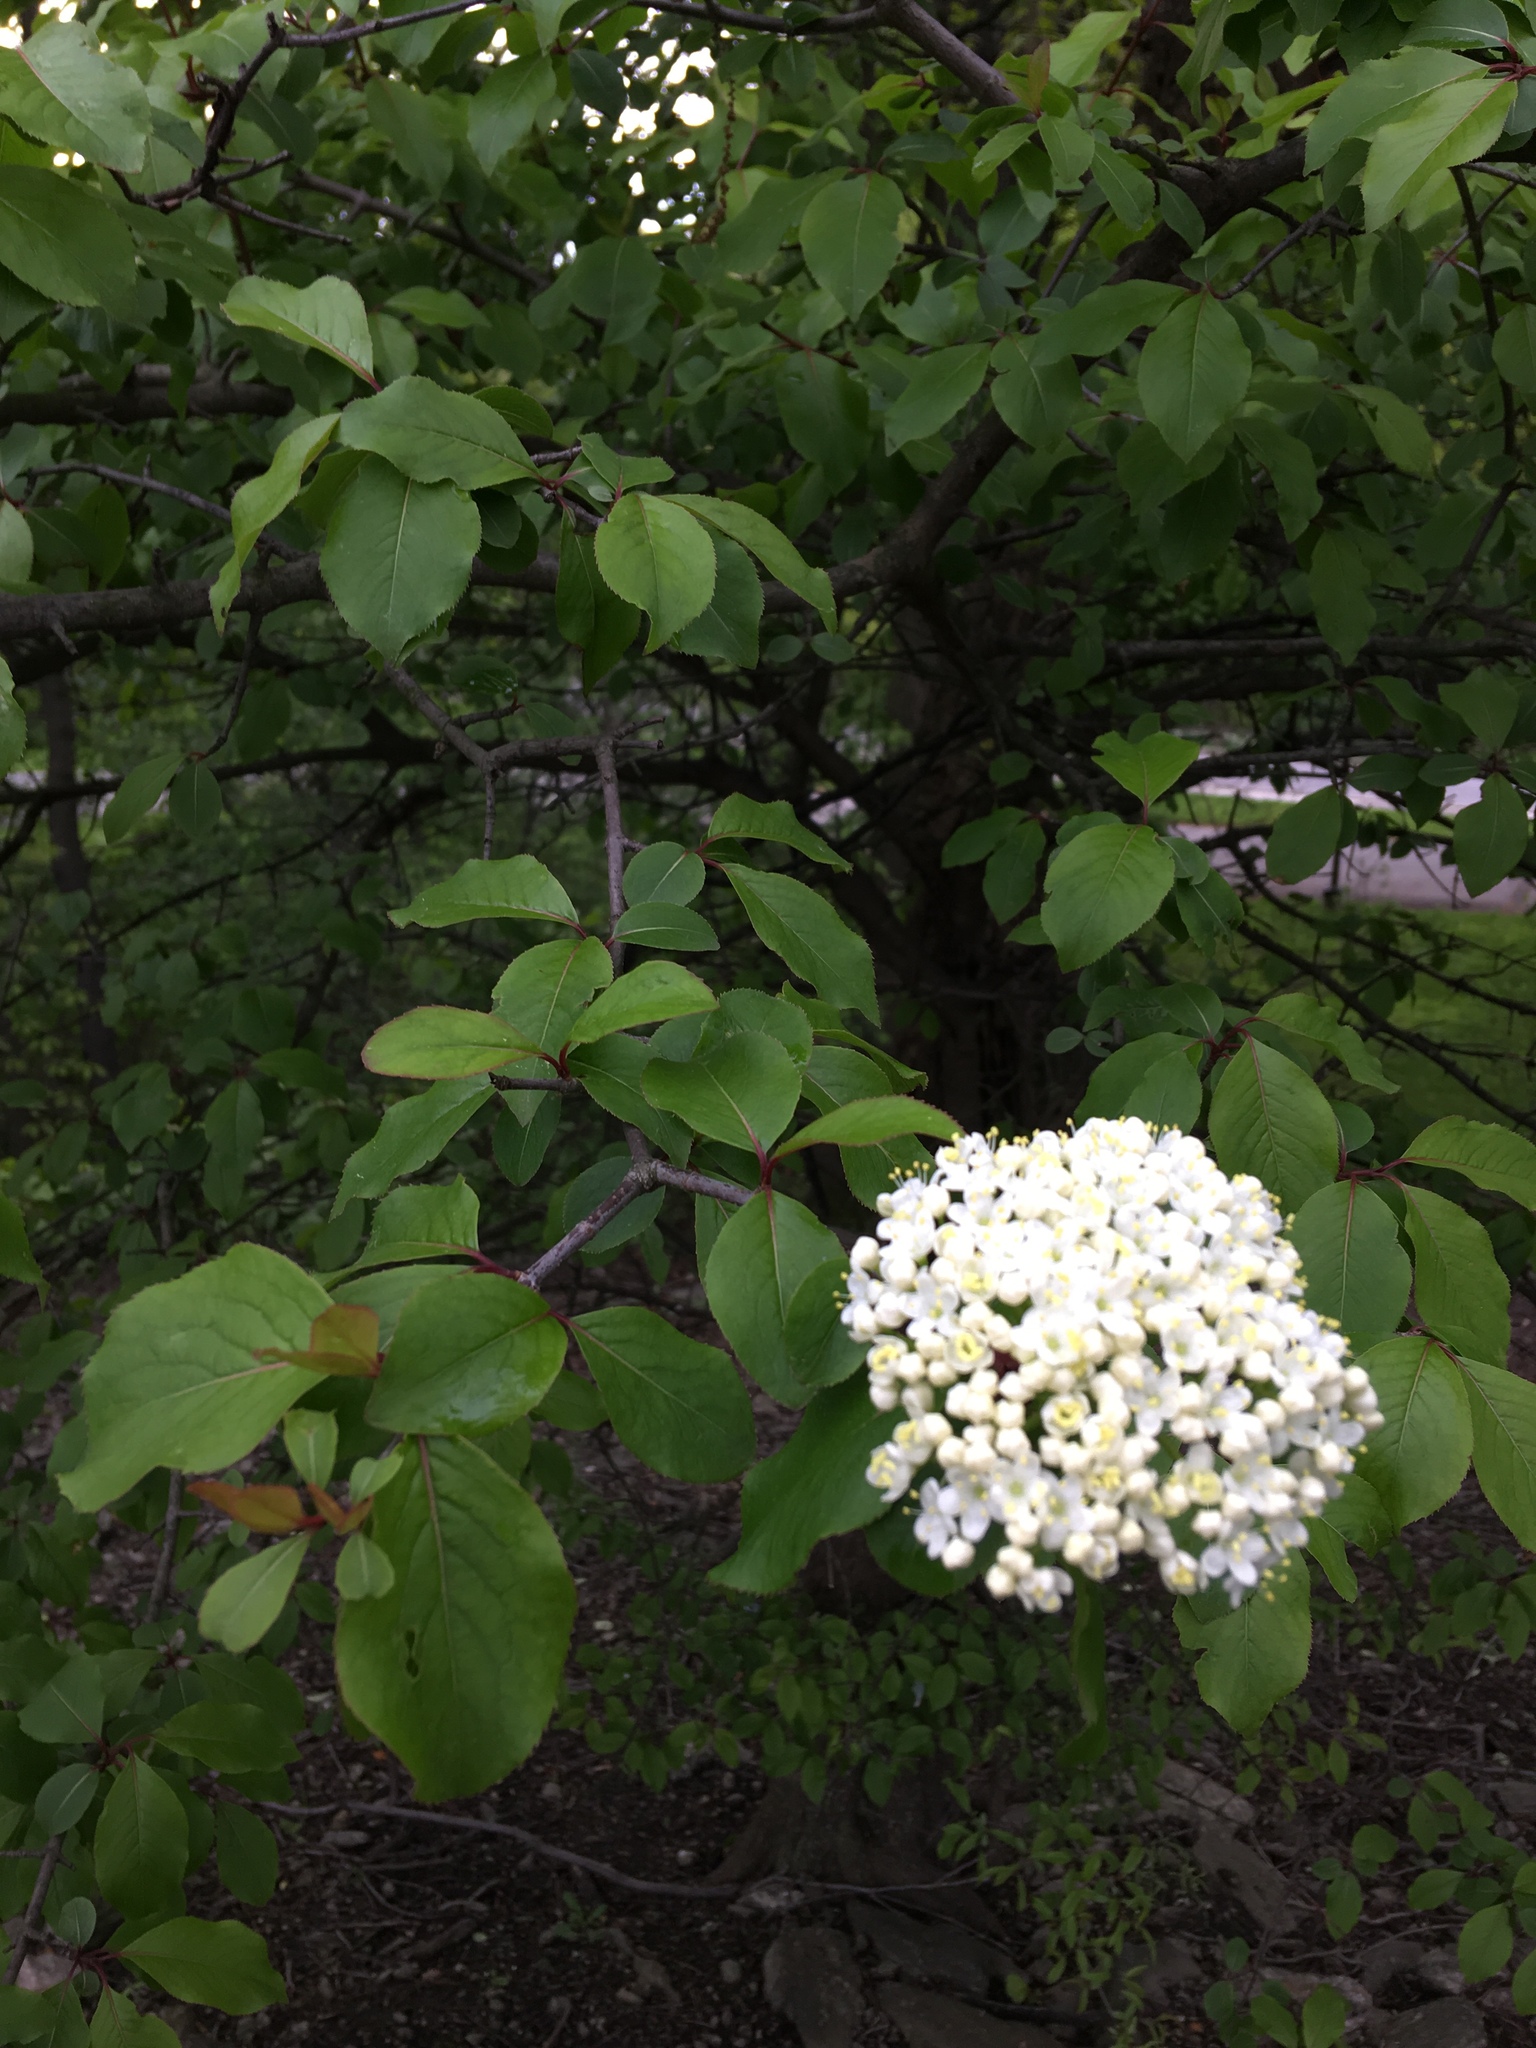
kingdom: Plantae
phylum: Tracheophyta
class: Magnoliopsida
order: Dipsacales
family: Viburnaceae
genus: Viburnum
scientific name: Viburnum prunifolium
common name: Black haw
